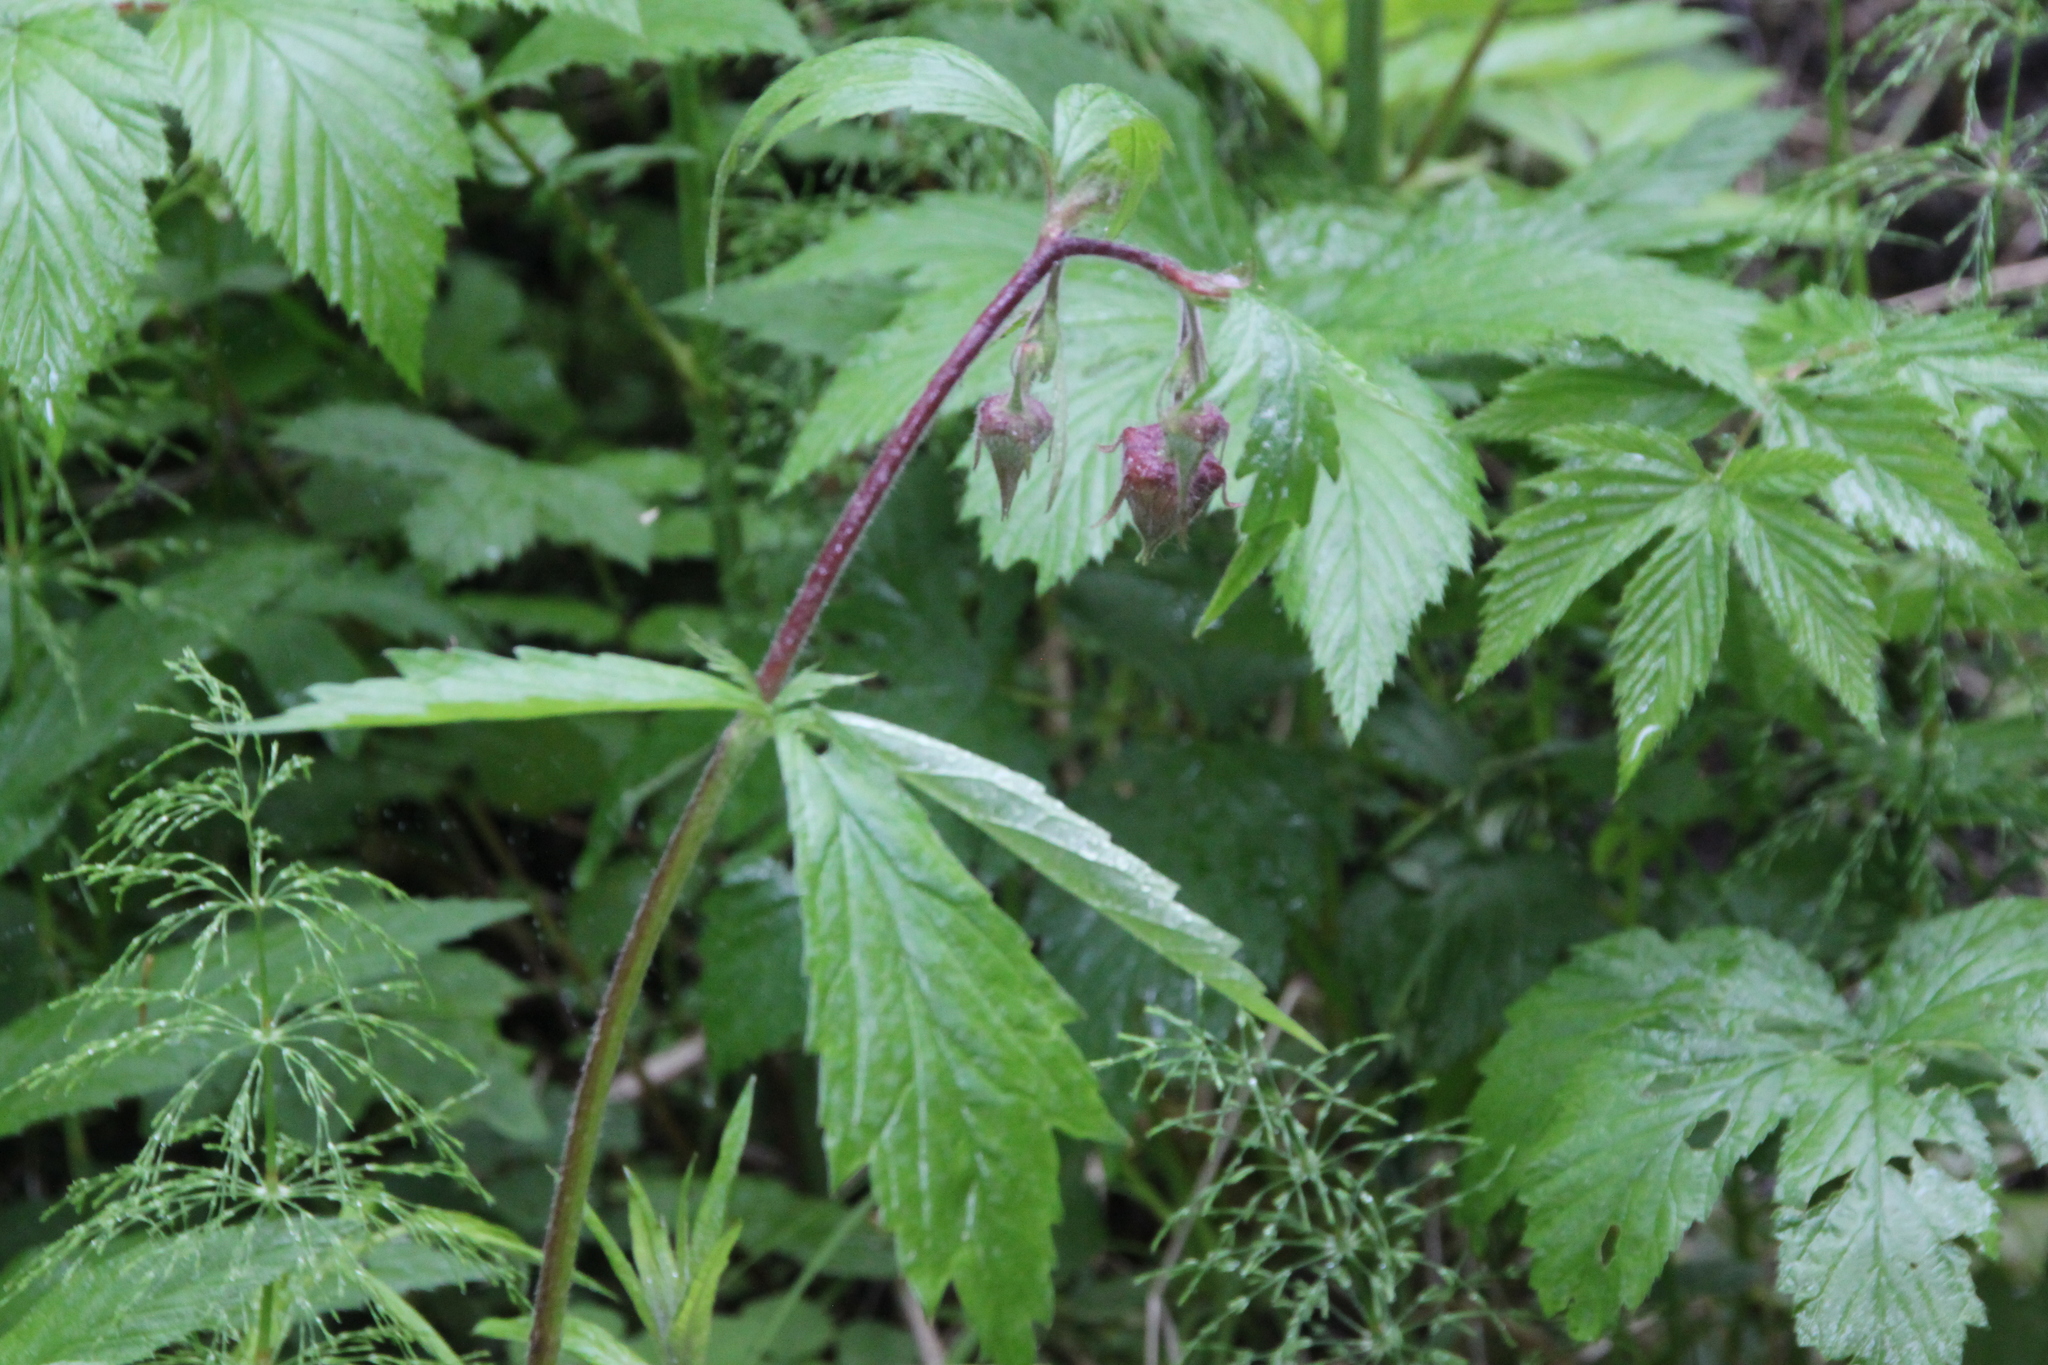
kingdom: Plantae
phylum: Tracheophyta
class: Magnoliopsida
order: Rosales
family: Rosaceae
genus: Geum
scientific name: Geum rivale
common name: Water avens
